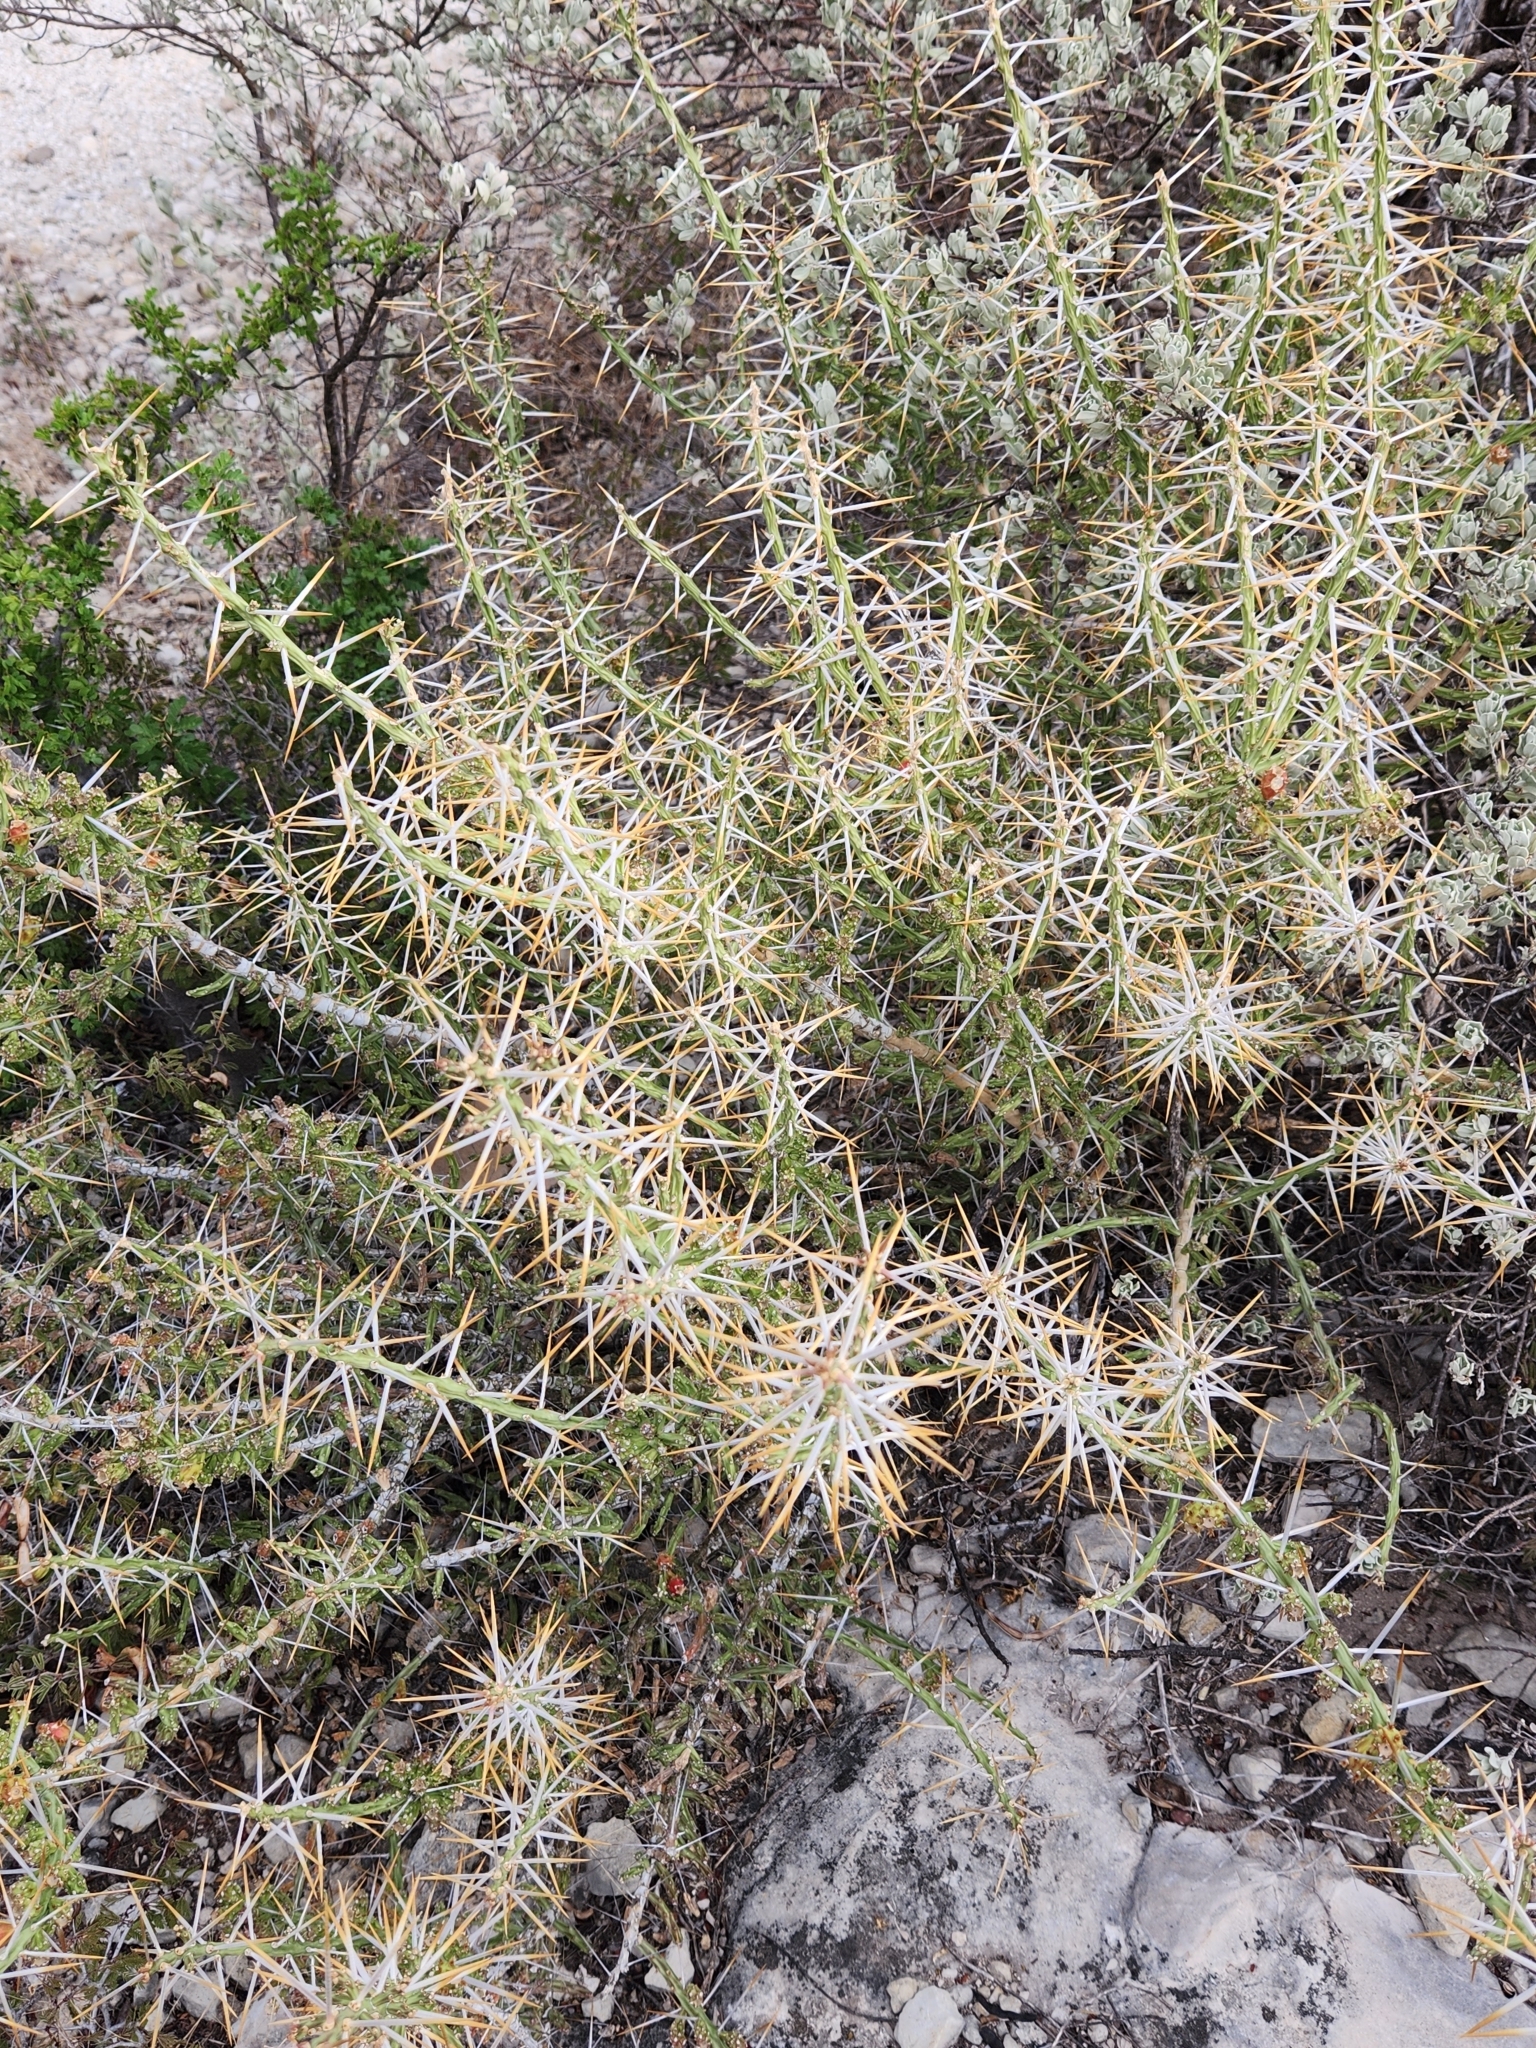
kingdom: Plantae
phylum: Tracheophyta
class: Magnoliopsida
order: Caryophyllales
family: Cactaceae
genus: Cylindropuntia
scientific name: Cylindropuntia leptocaulis
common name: Christmas cactus
